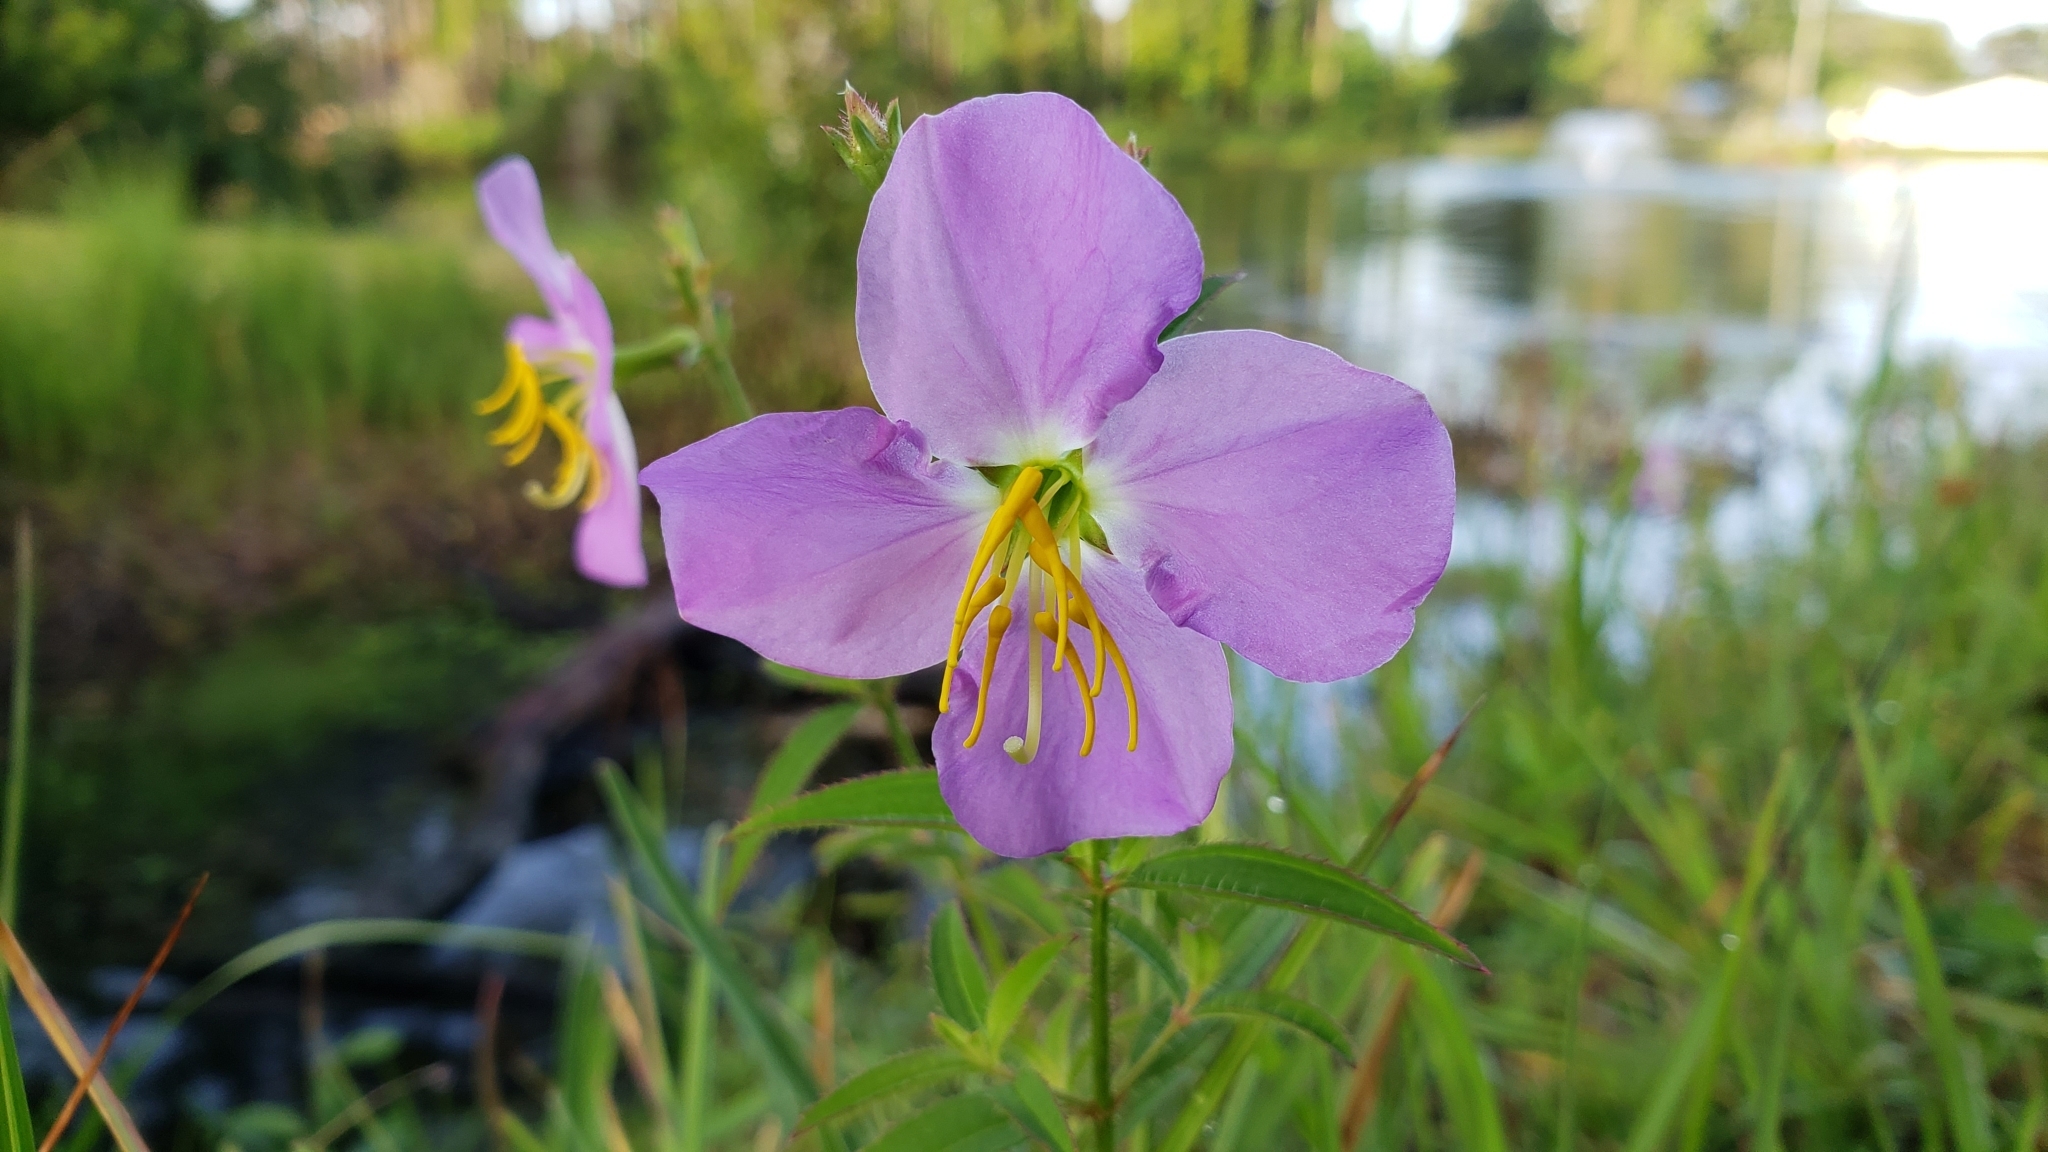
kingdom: Plantae
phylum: Tracheophyta
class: Magnoliopsida
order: Myrtales
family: Melastomataceae
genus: Rhexia
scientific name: Rhexia nashii
